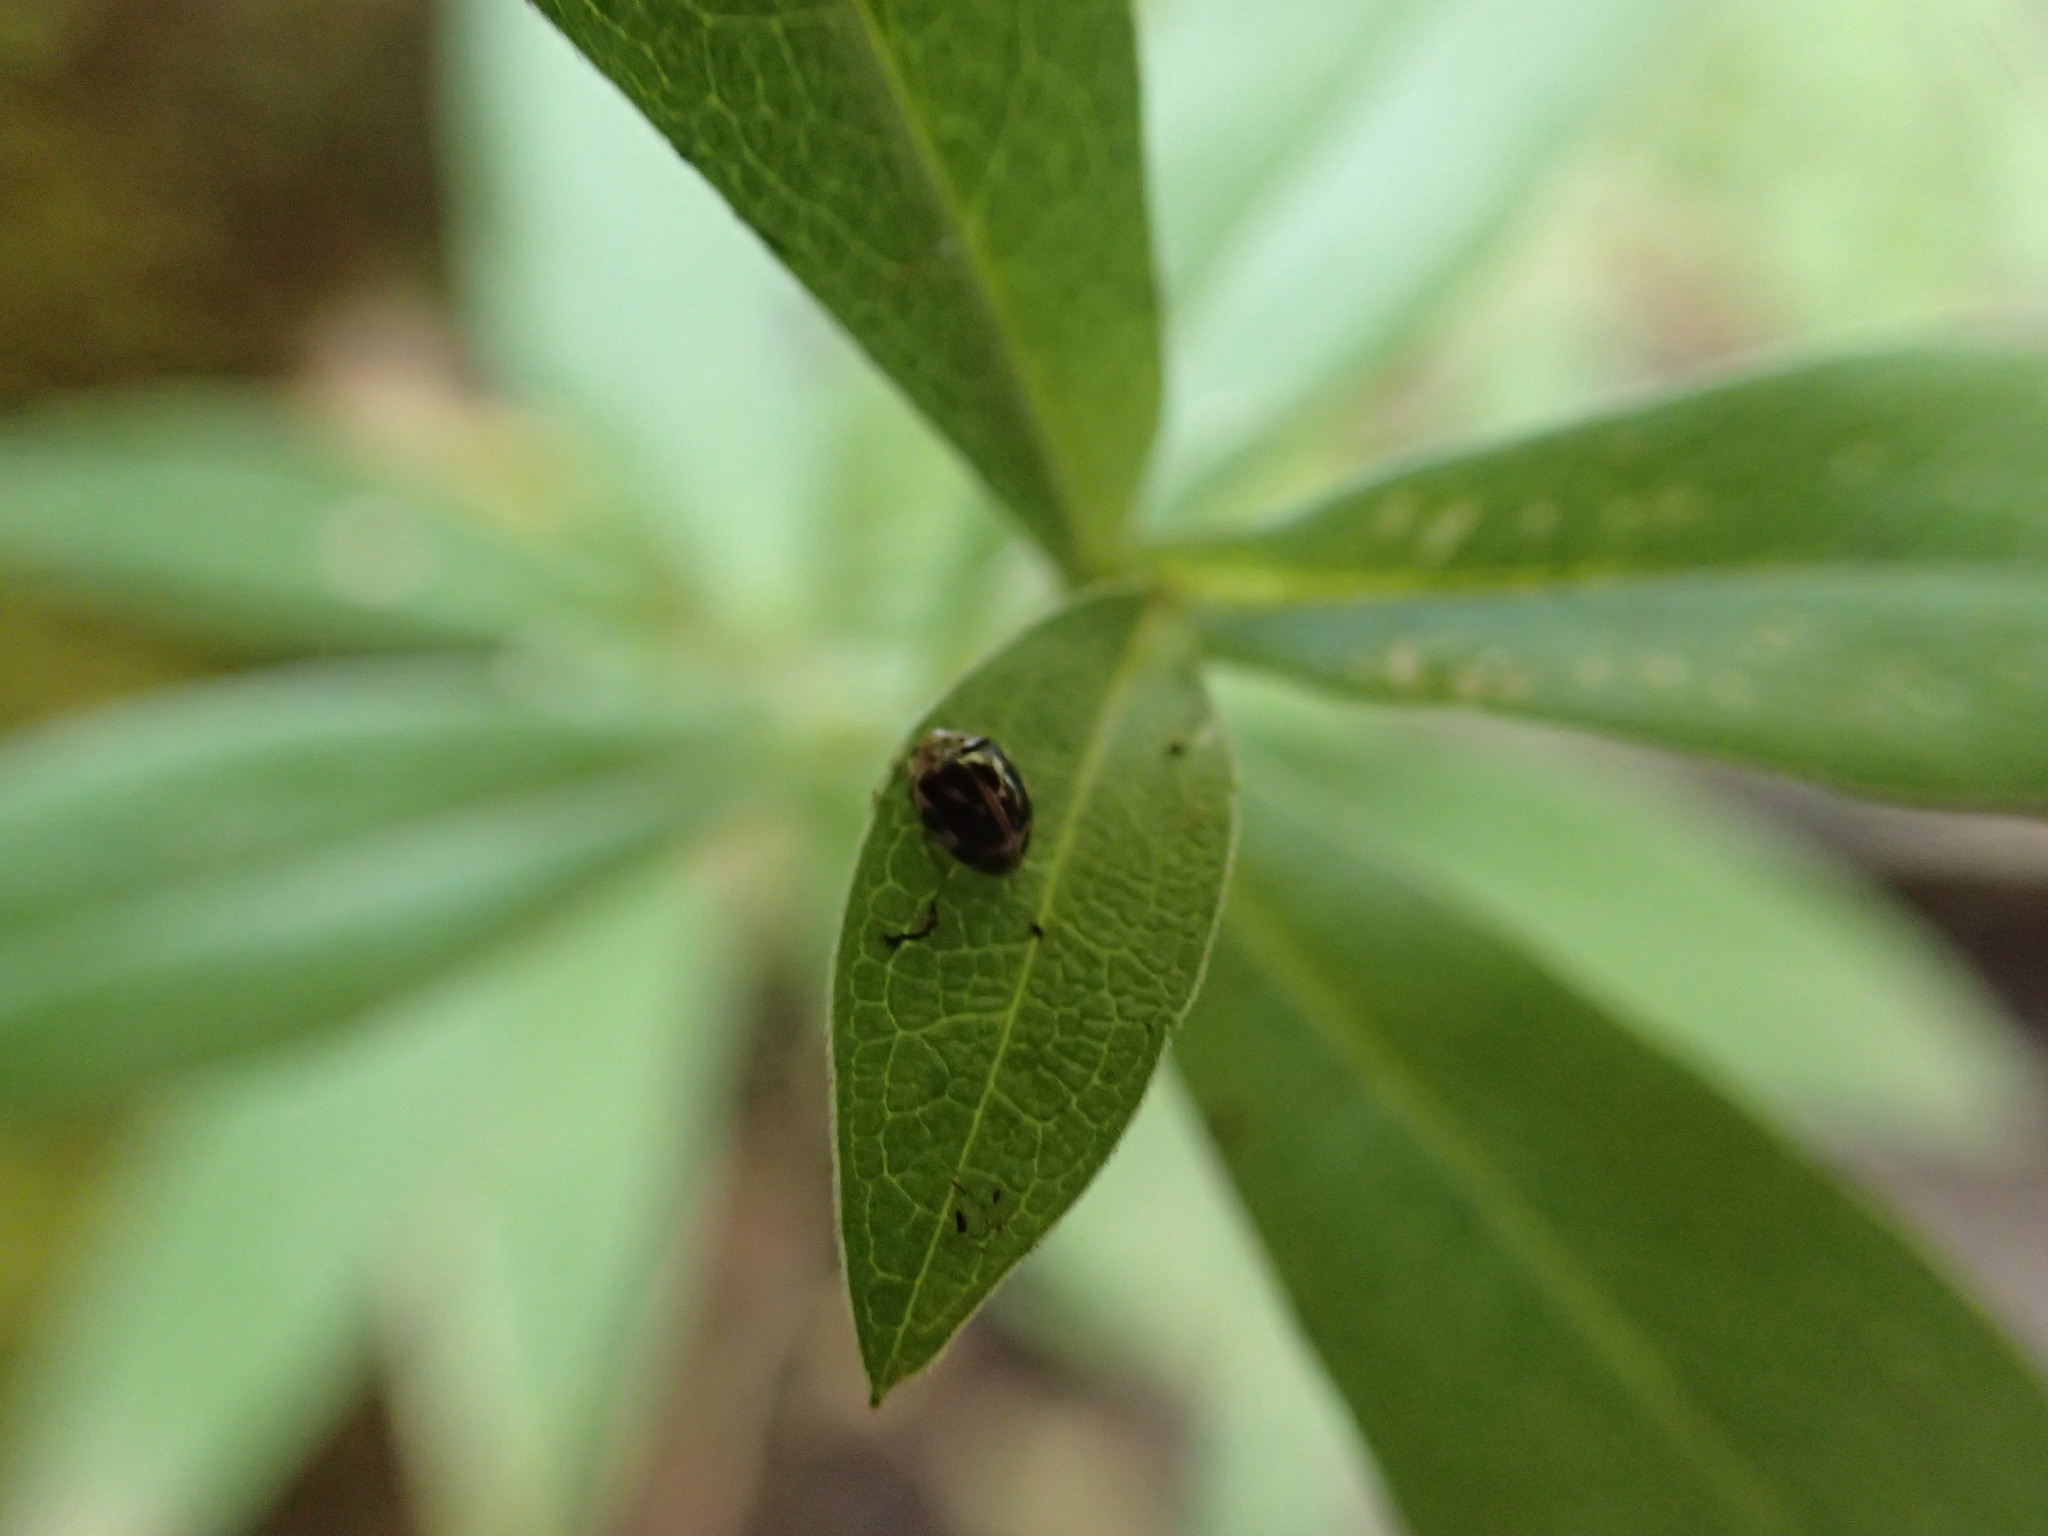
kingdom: Animalia
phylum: Arthropoda
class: Insecta
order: Coleoptera
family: Coccinellidae
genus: Psyllobora
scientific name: Psyllobora vigintimaculata
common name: Ladybird beetle
